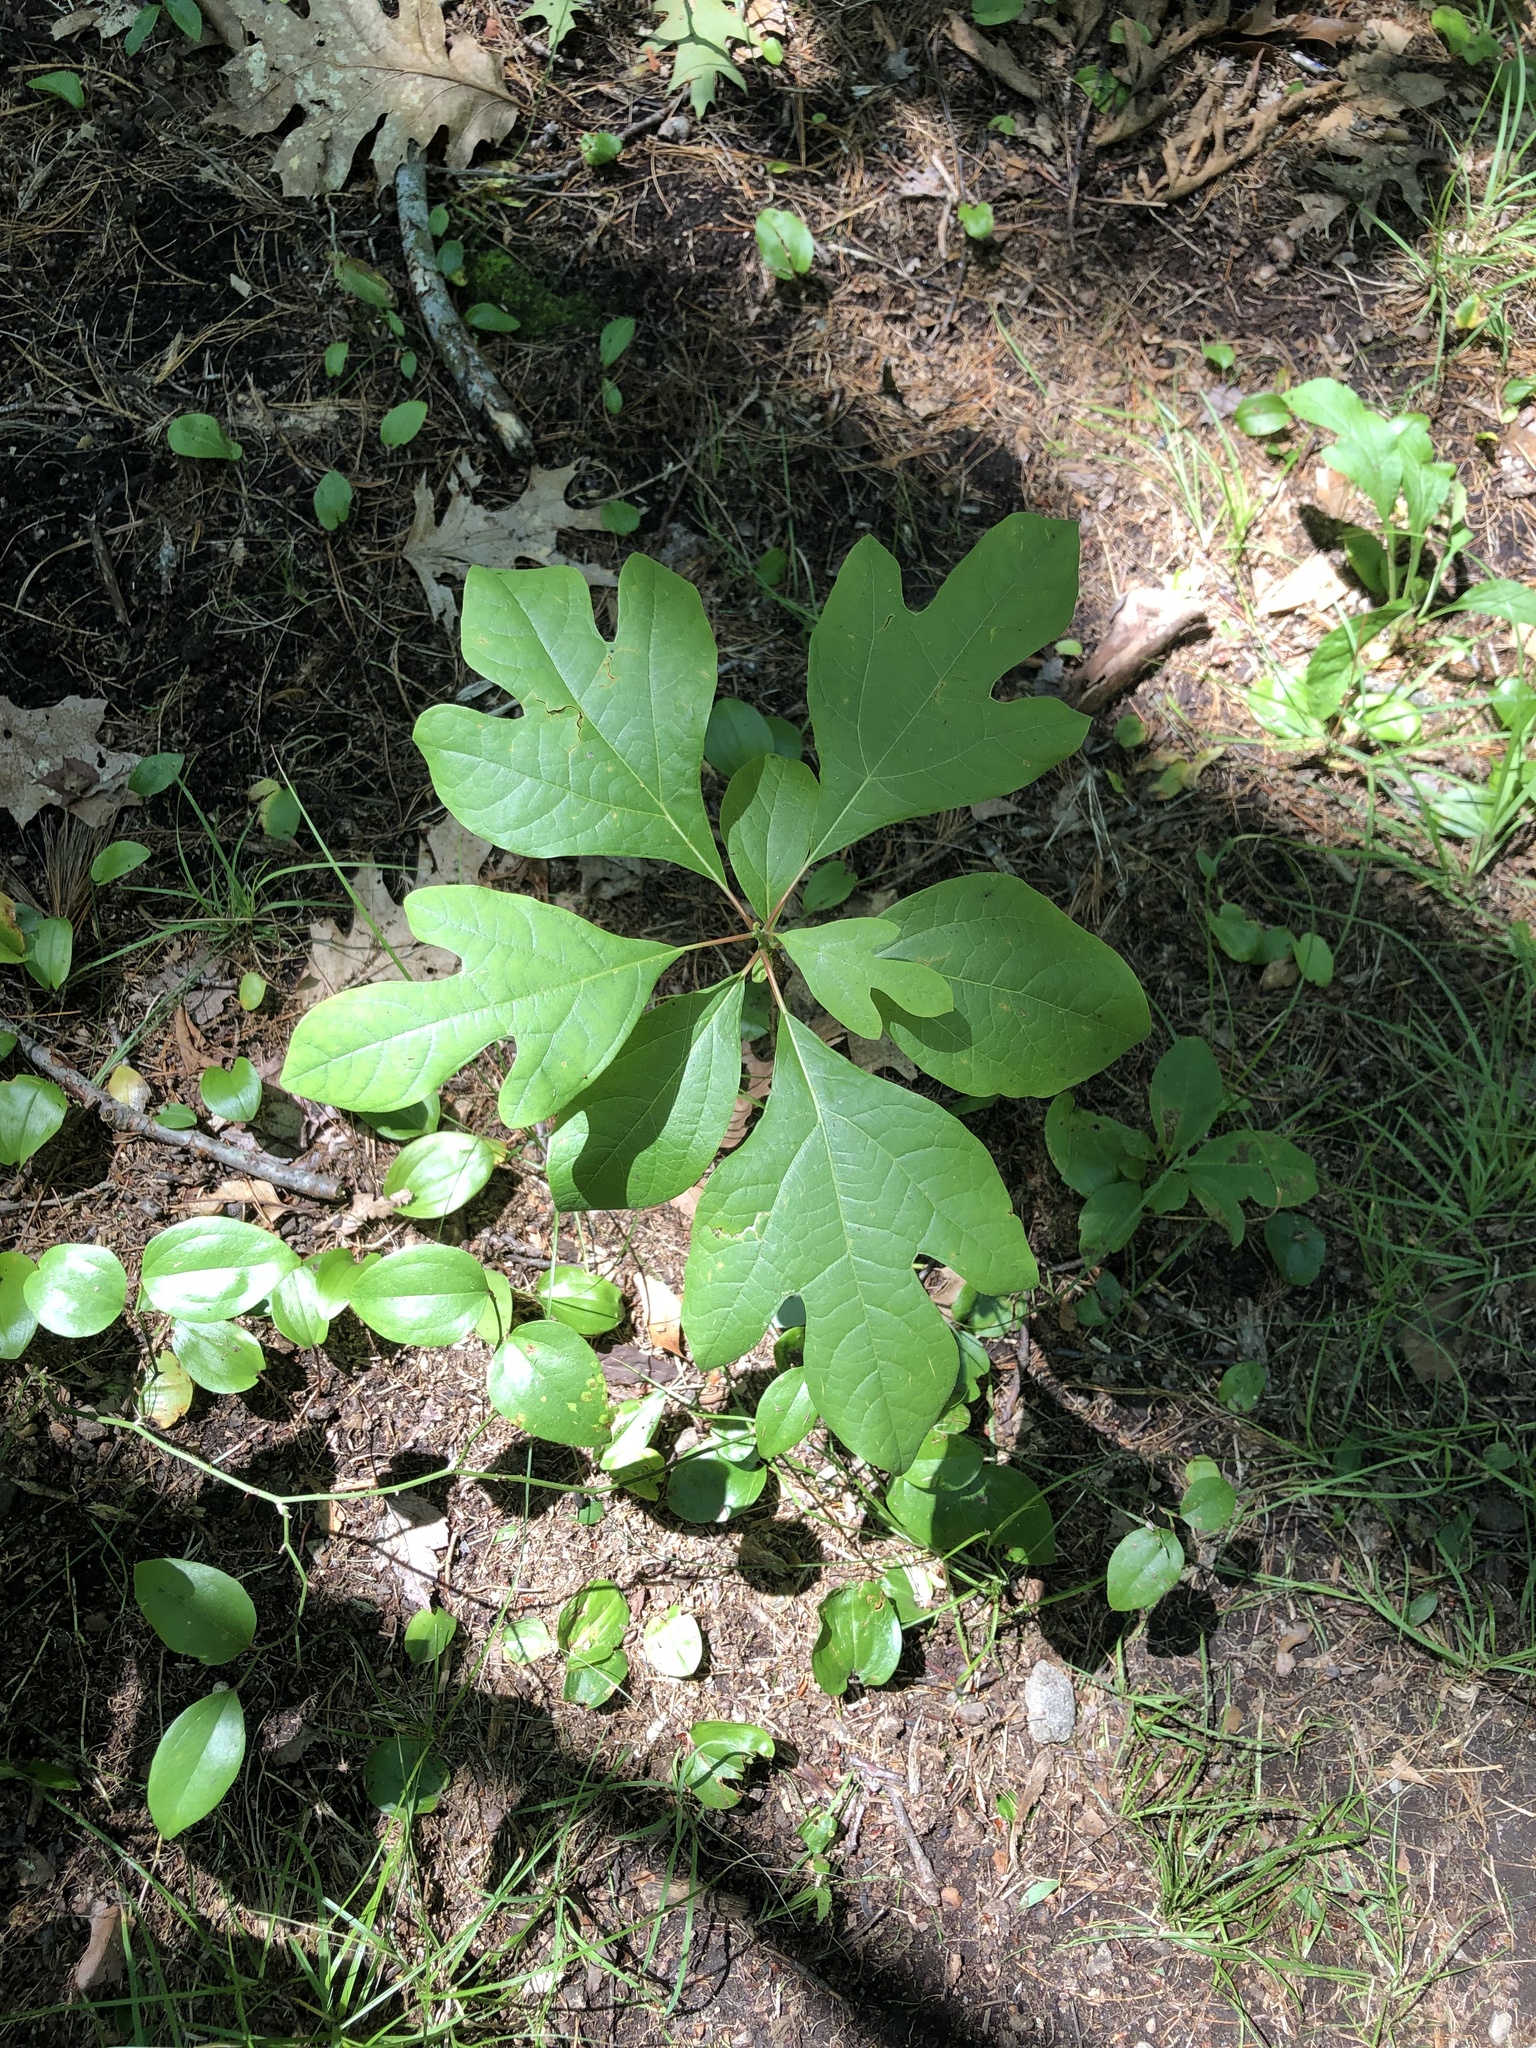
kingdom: Plantae
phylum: Tracheophyta
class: Magnoliopsida
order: Laurales
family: Lauraceae
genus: Sassafras
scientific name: Sassafras albidum
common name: Sassafras
